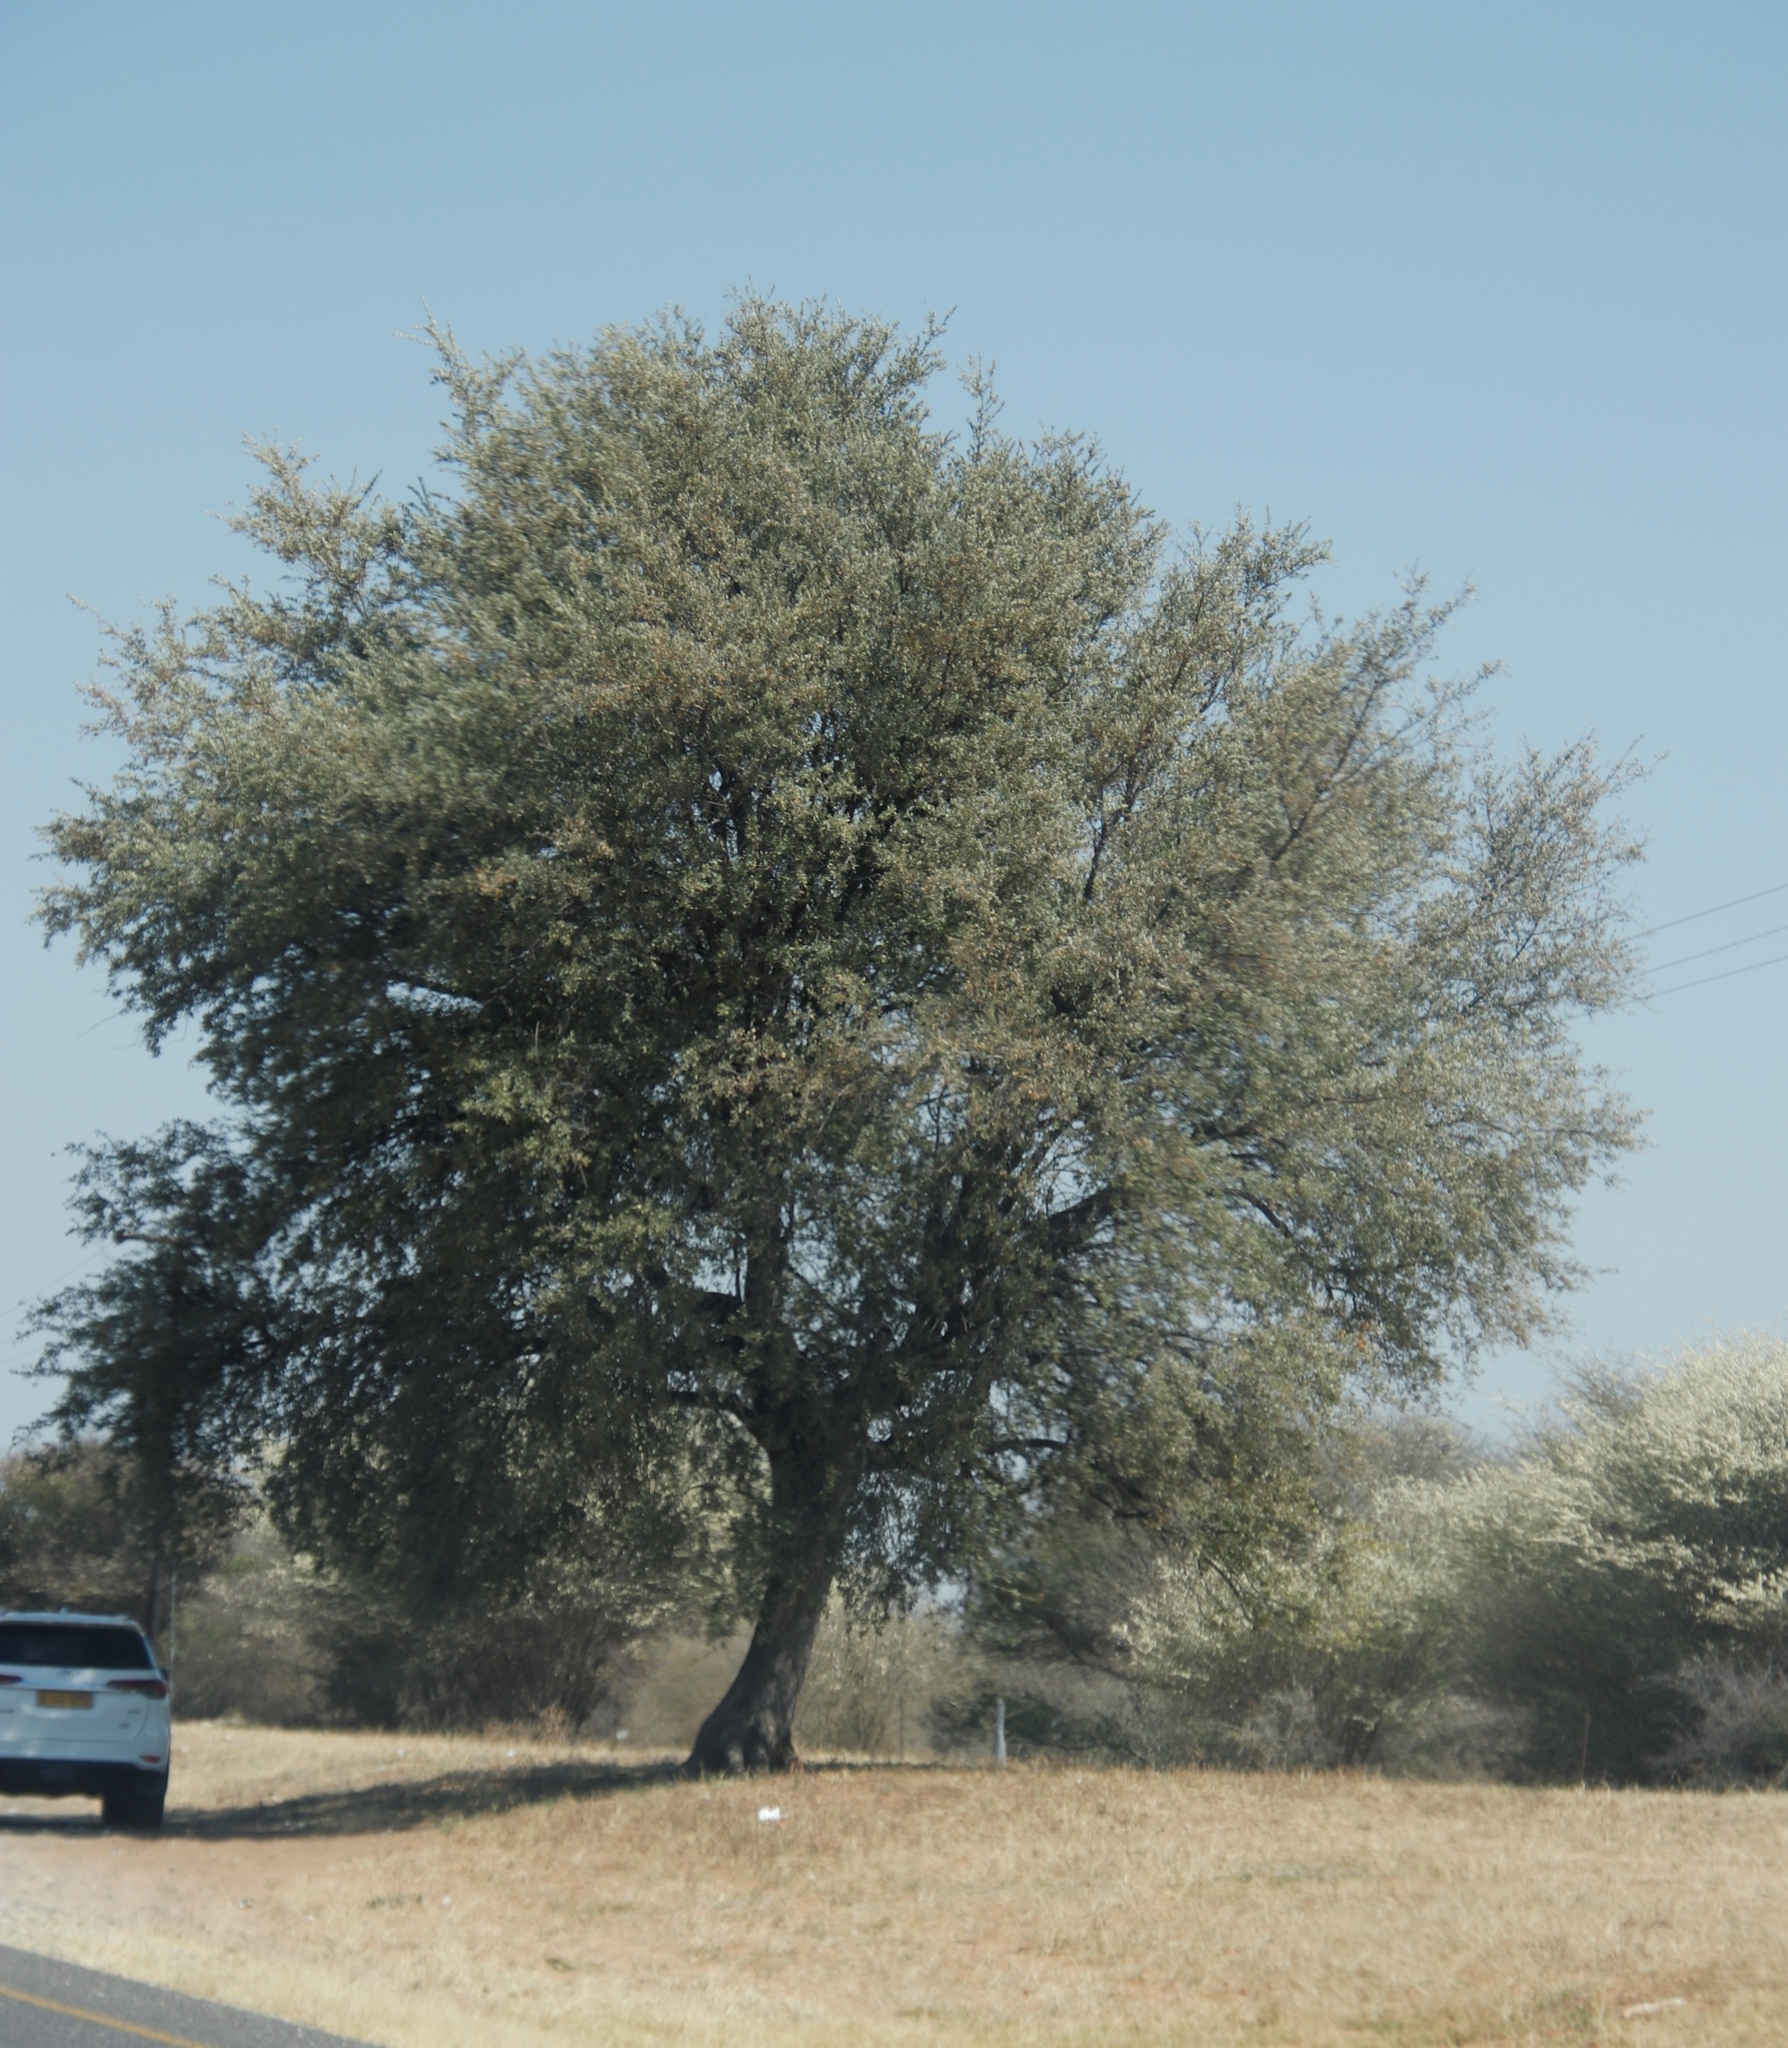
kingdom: Plantae
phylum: Tracheophyta
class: Magnoliopsida
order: Fabales
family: Fabaceae
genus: Vachellia
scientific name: Vachellia erioloba
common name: Camel thorn
